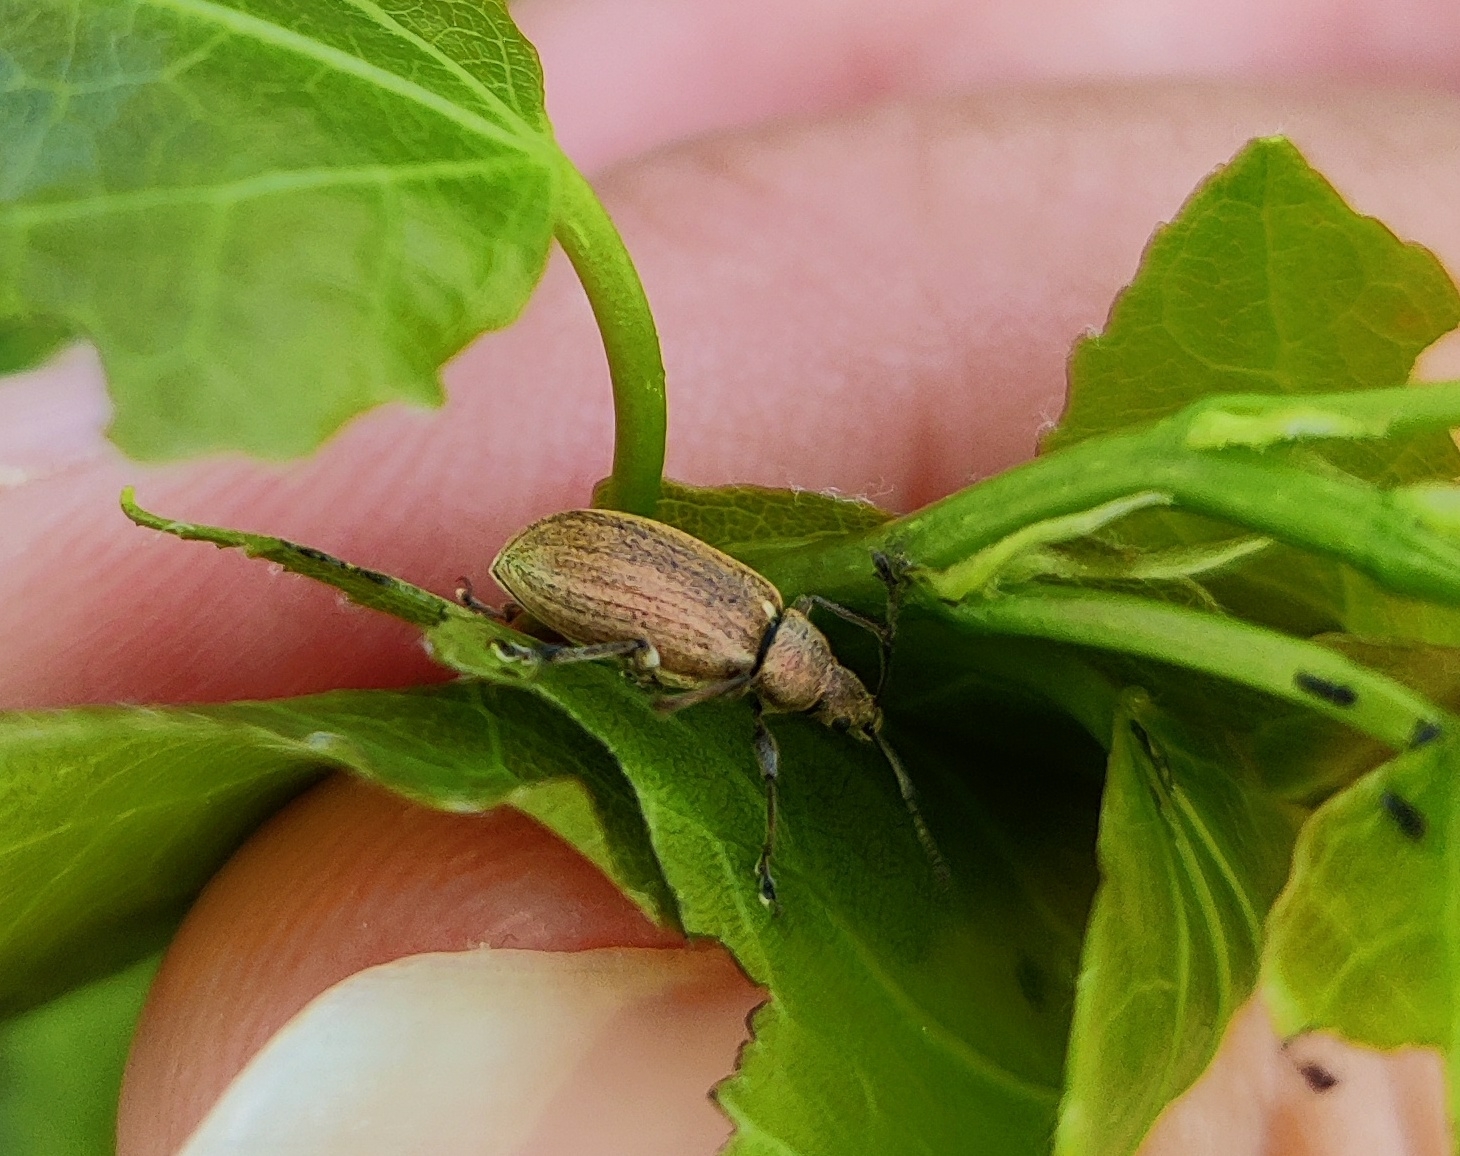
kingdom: Animalia
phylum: Arthropoda
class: Insecta
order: Coleoptera
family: Curculionidae
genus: Phyllobius
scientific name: Phyllobius pyri
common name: Common leaf weevil
